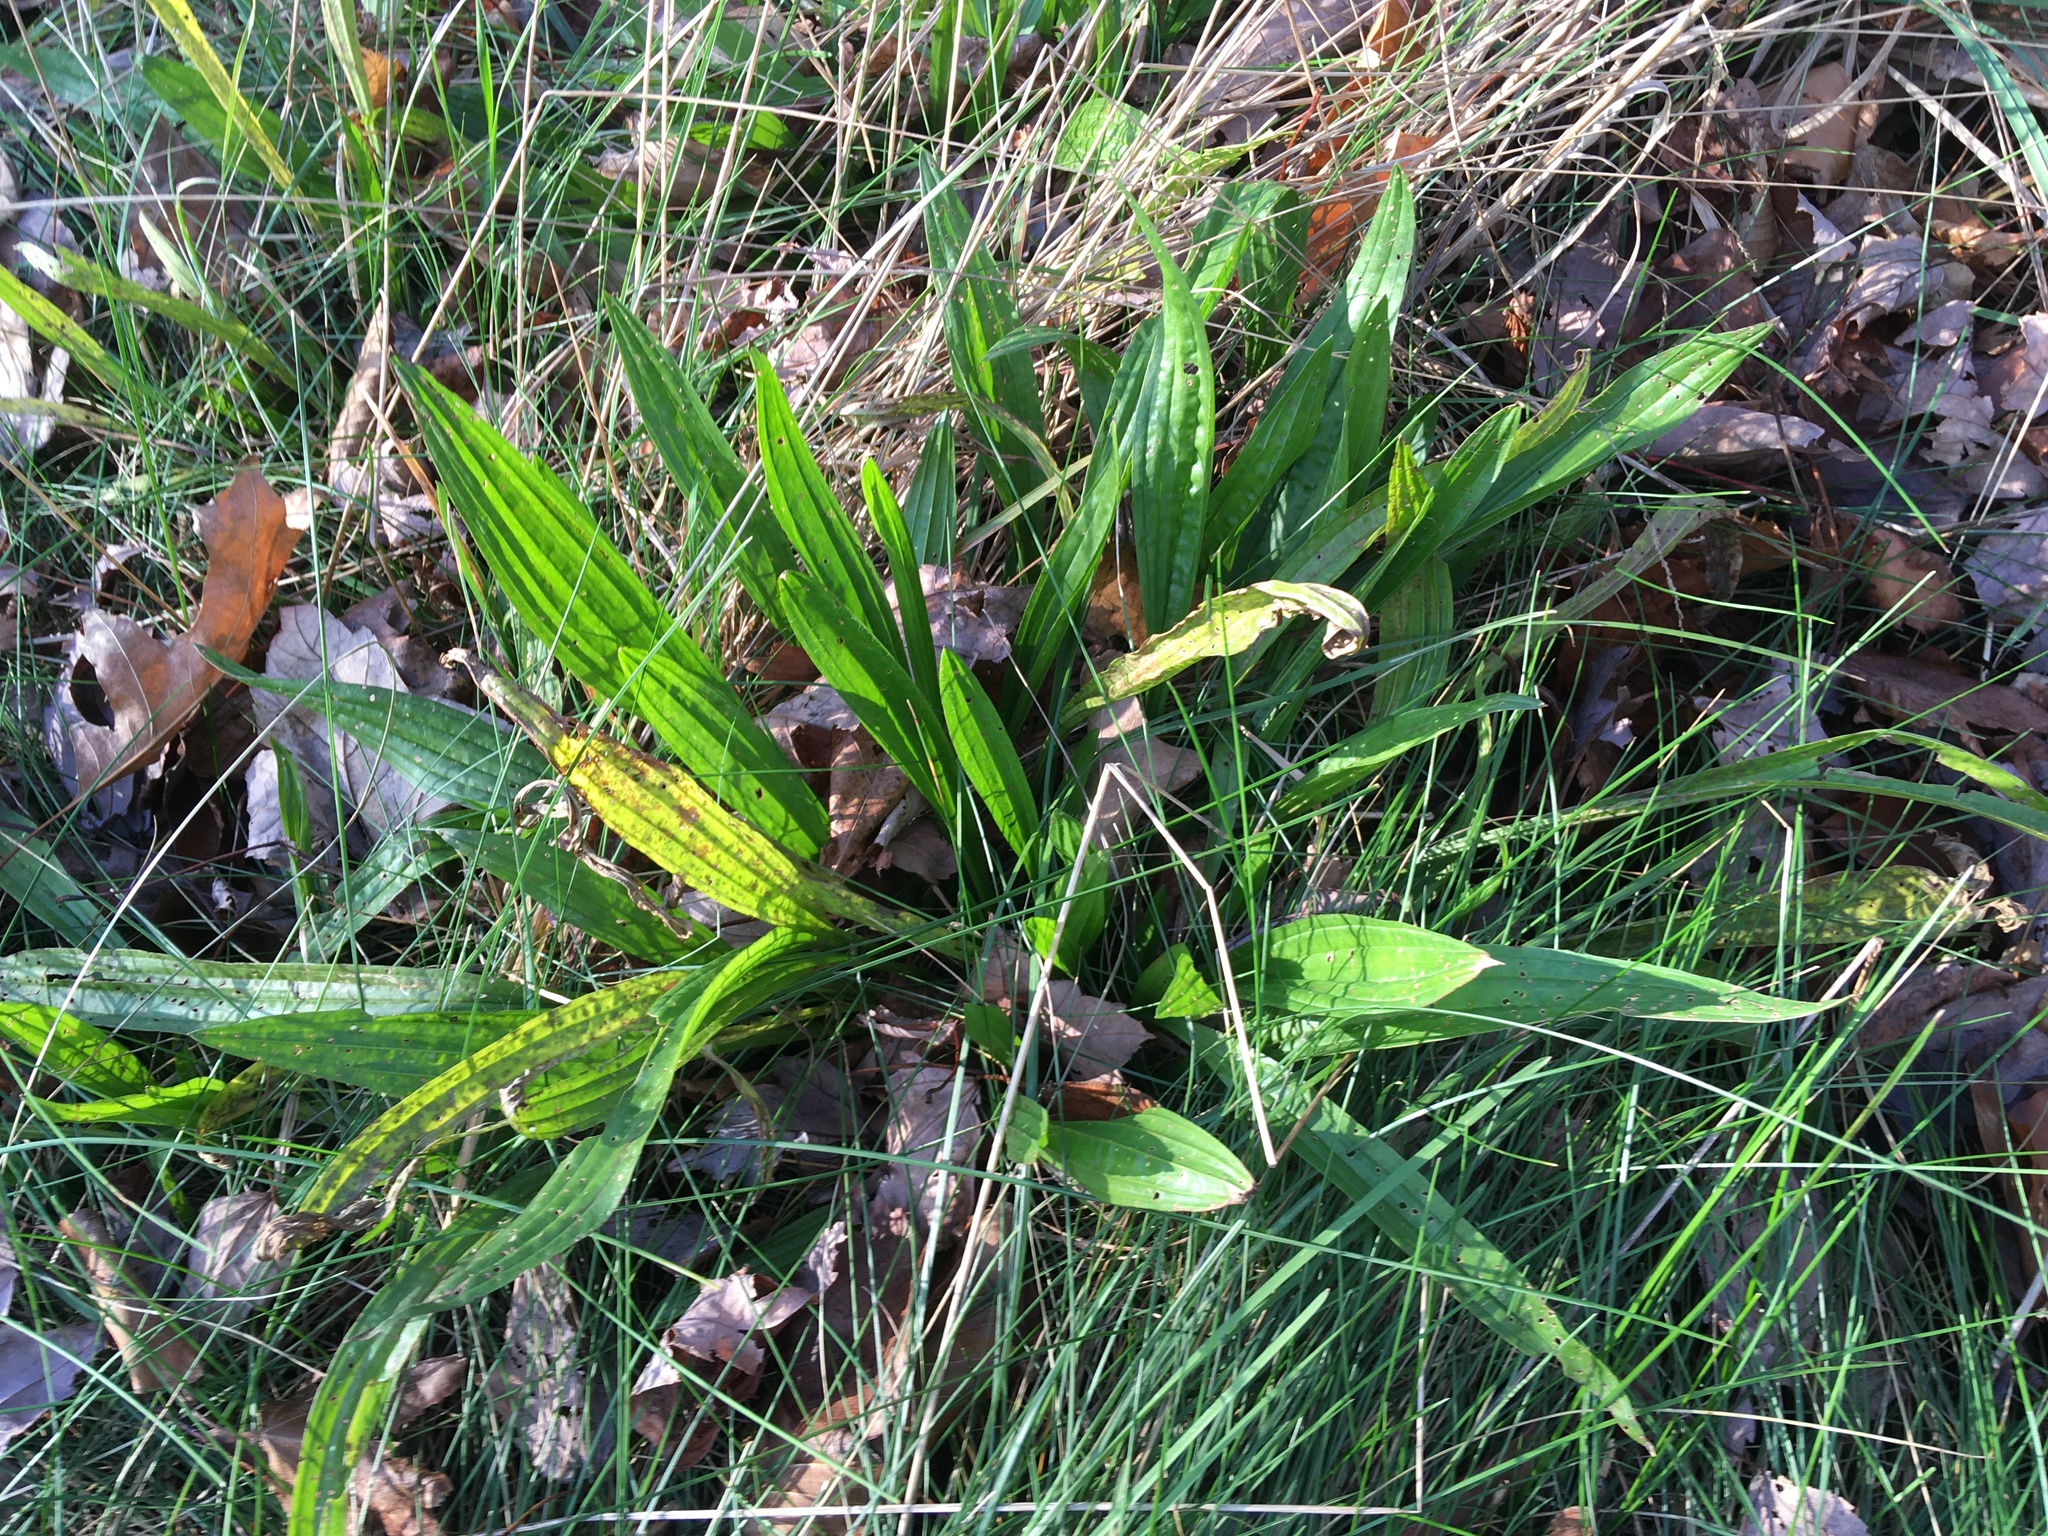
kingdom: Plantae
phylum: Tracheophyta
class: Magnoliopsida
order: Lamiales
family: Plantaginaceae
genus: Plantago
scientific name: Plantago lanceolata
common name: Ribwort plantain
